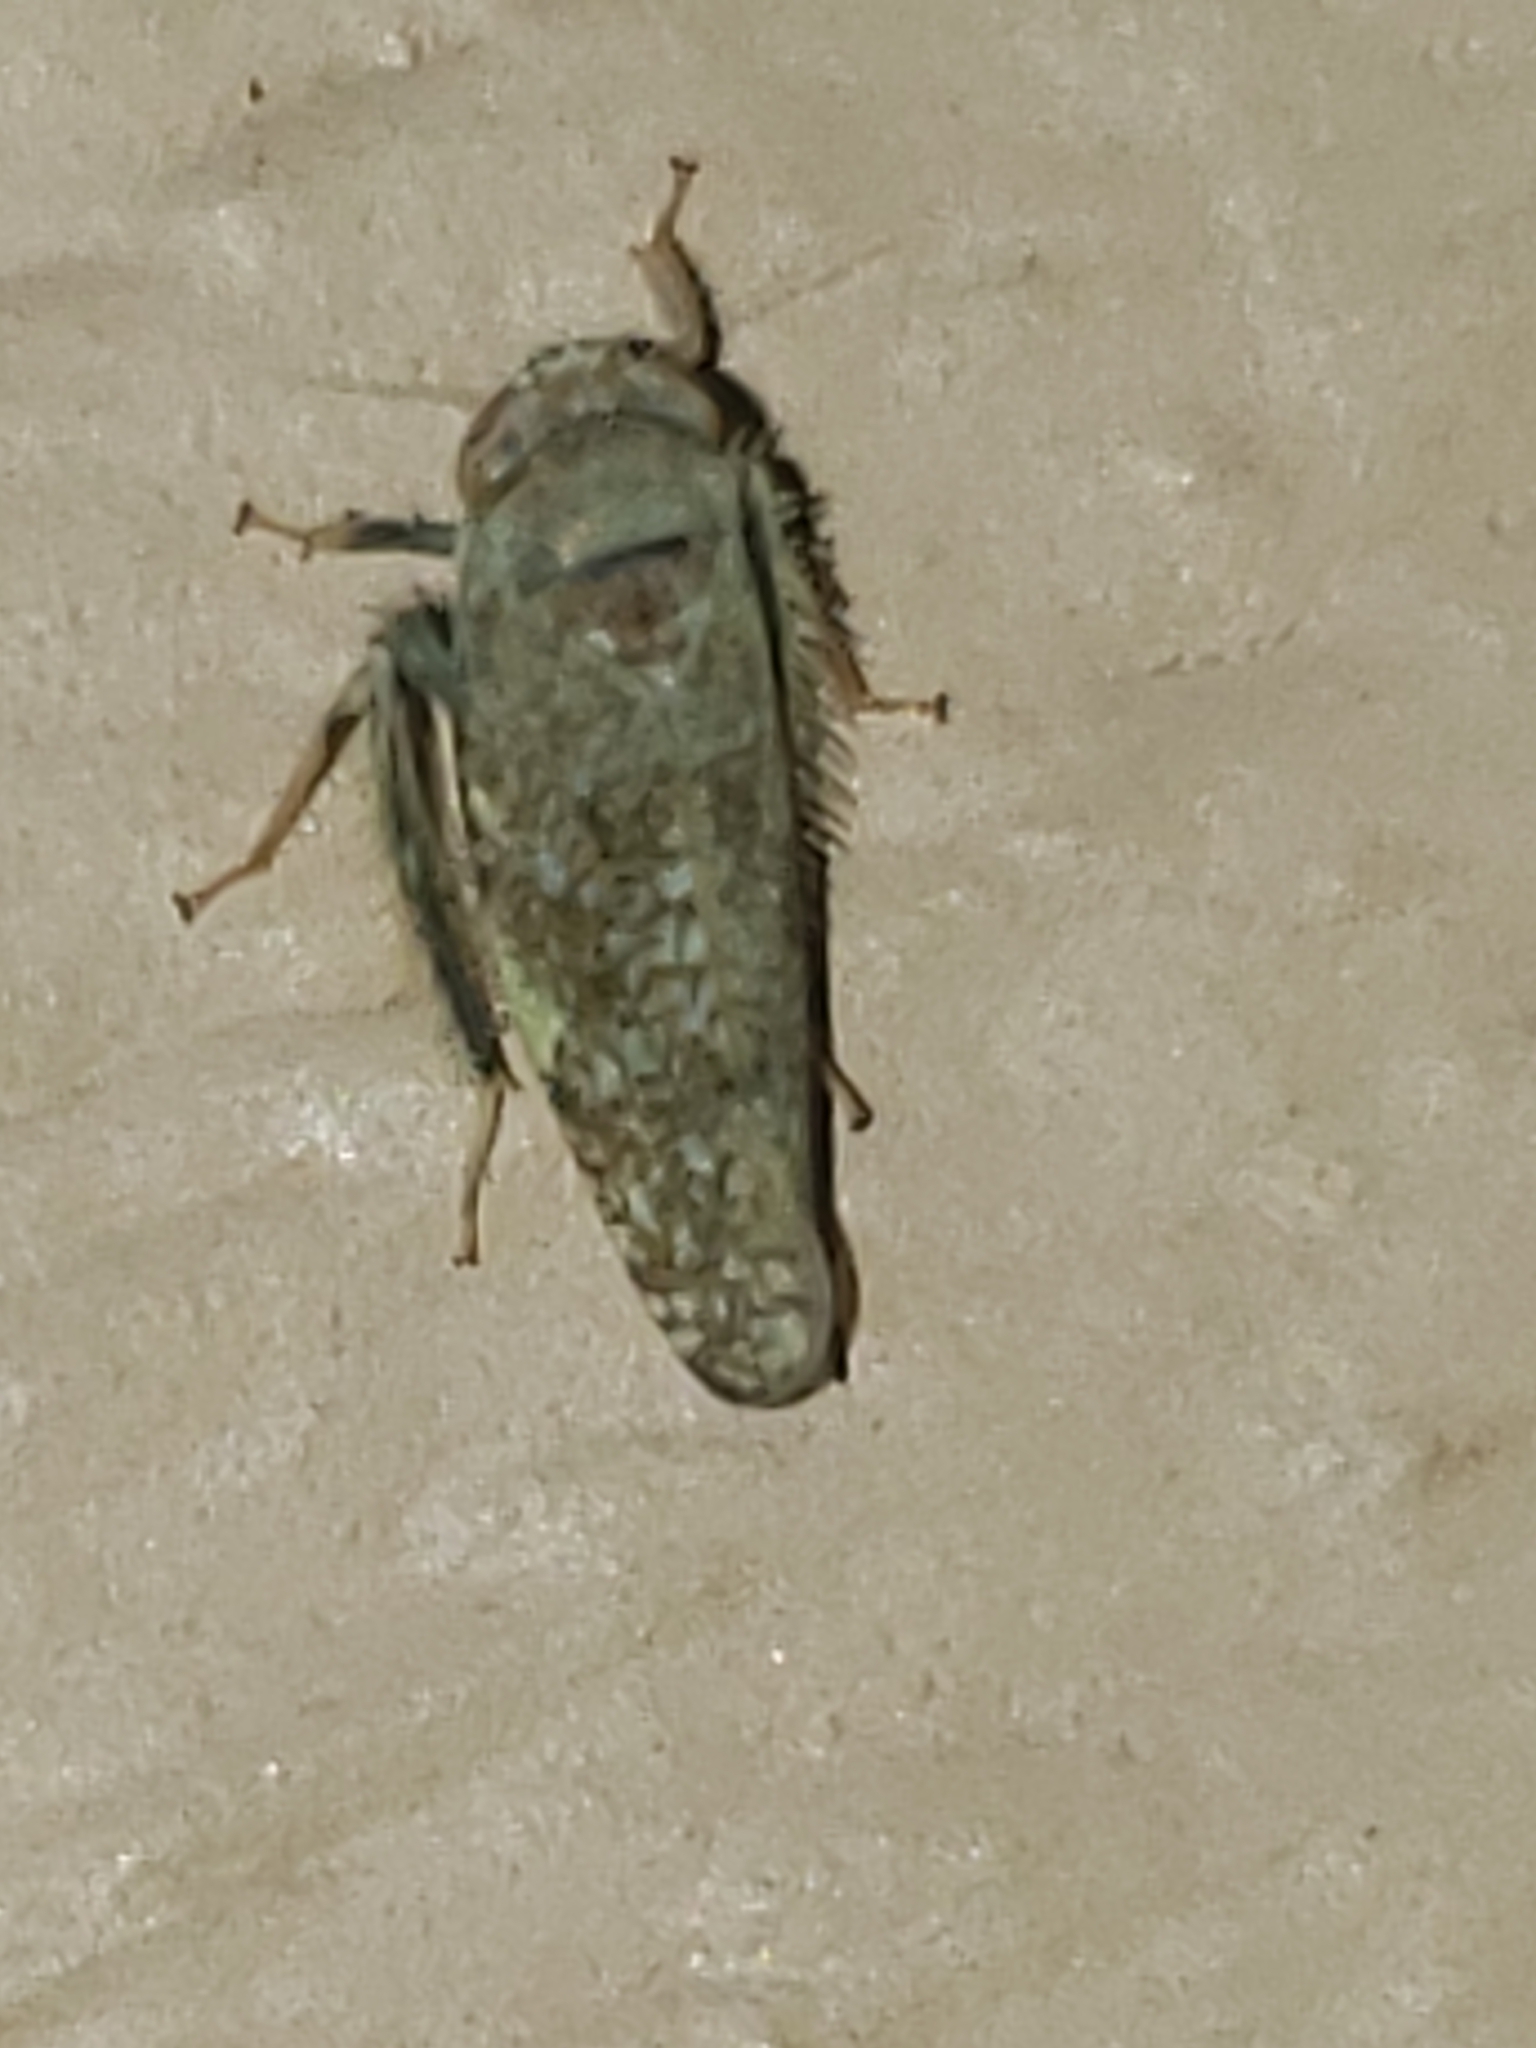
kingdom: Animalia
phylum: Arthropoda
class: Insecta
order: Hemiptera
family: Cicadellidae
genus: Orientus
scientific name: Orientus ishidae
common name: Japanese leafhopper
